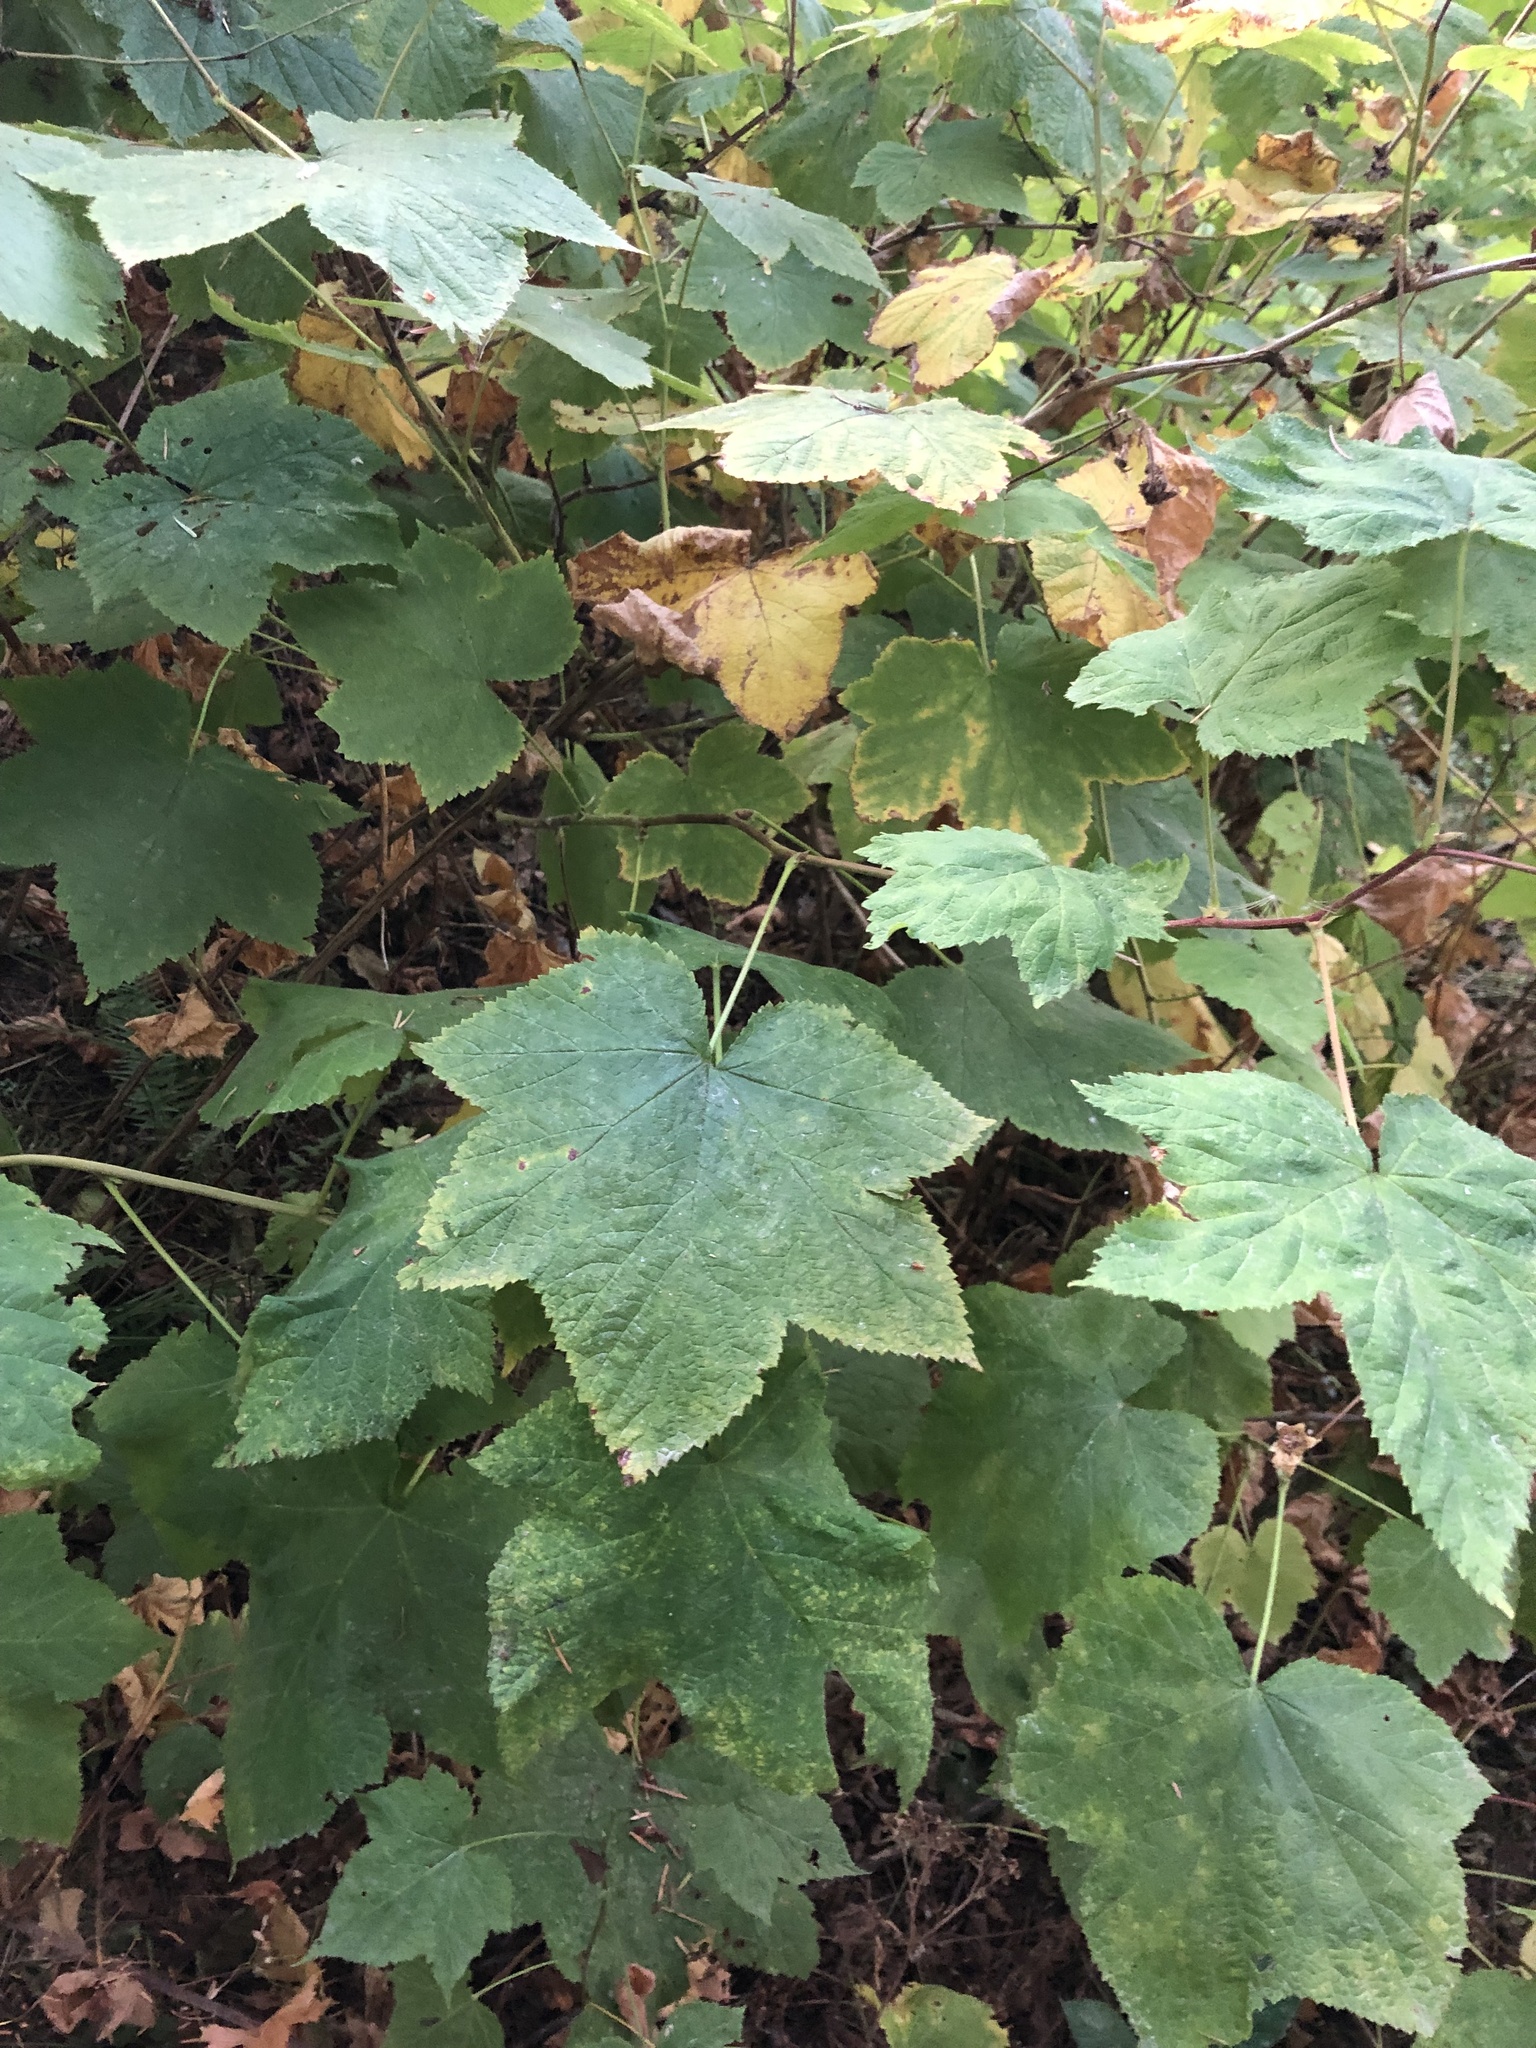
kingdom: Plantae
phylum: Tracheophyta
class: Magnoliopsida
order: Rosales
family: Rosaceae
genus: Rubus
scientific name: Rubus parviflorus
